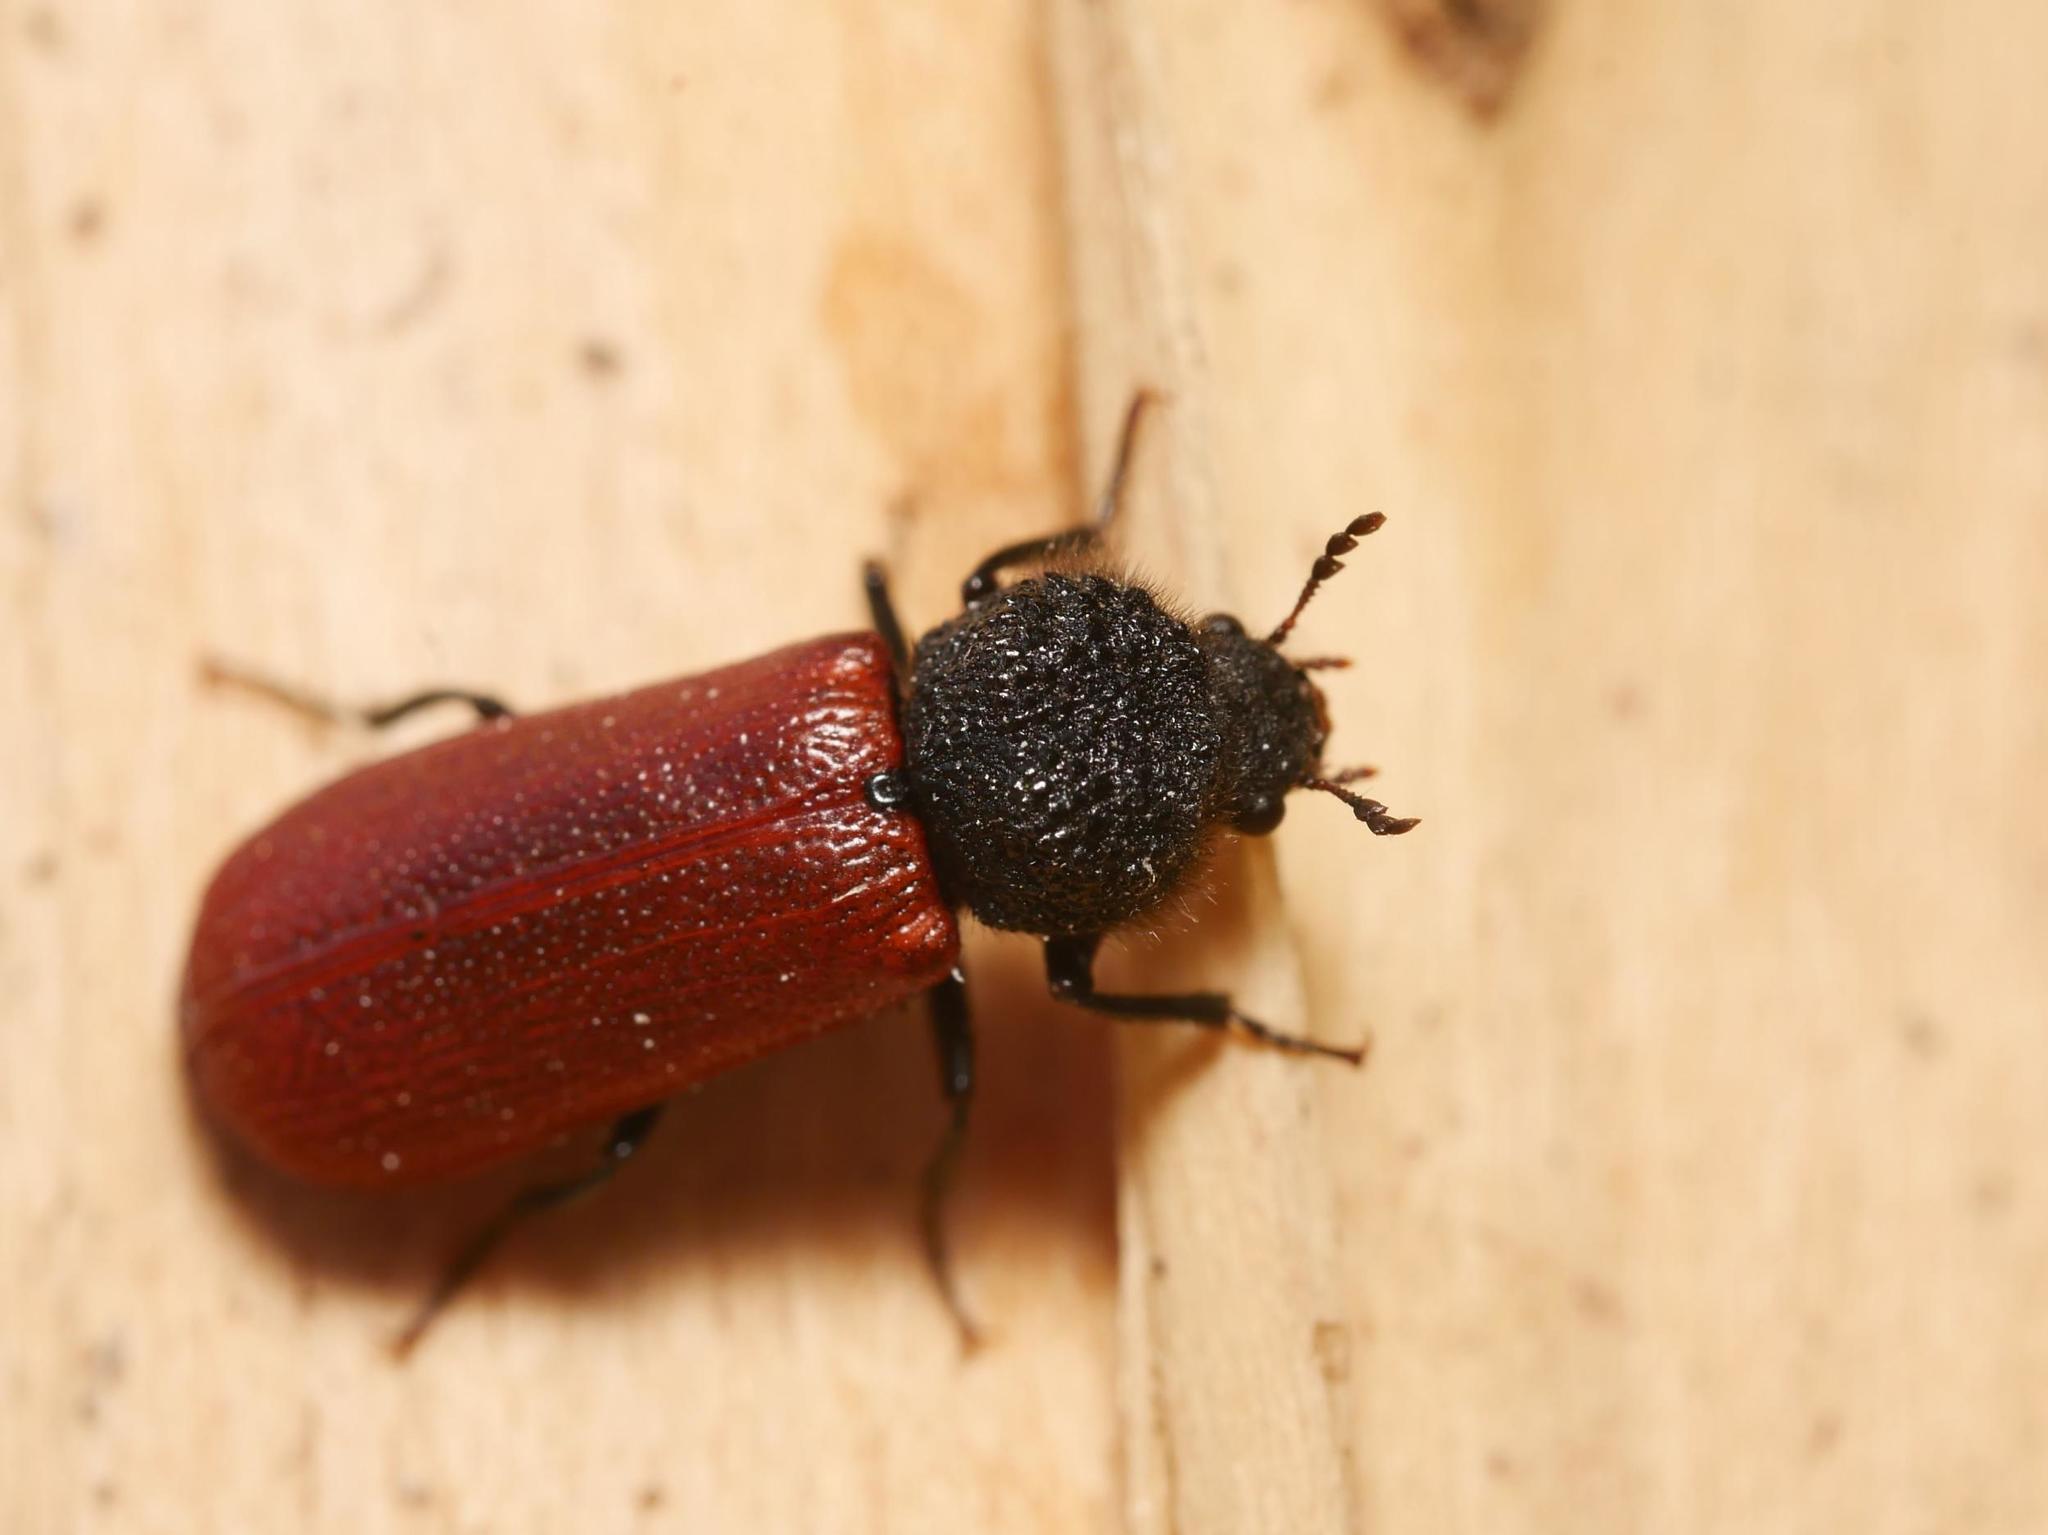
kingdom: Animalia
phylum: Arthropoda
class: Insecta
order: Coleoptera
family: Bostrichidae
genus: Bostrichus
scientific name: Bostrichus capucinus
